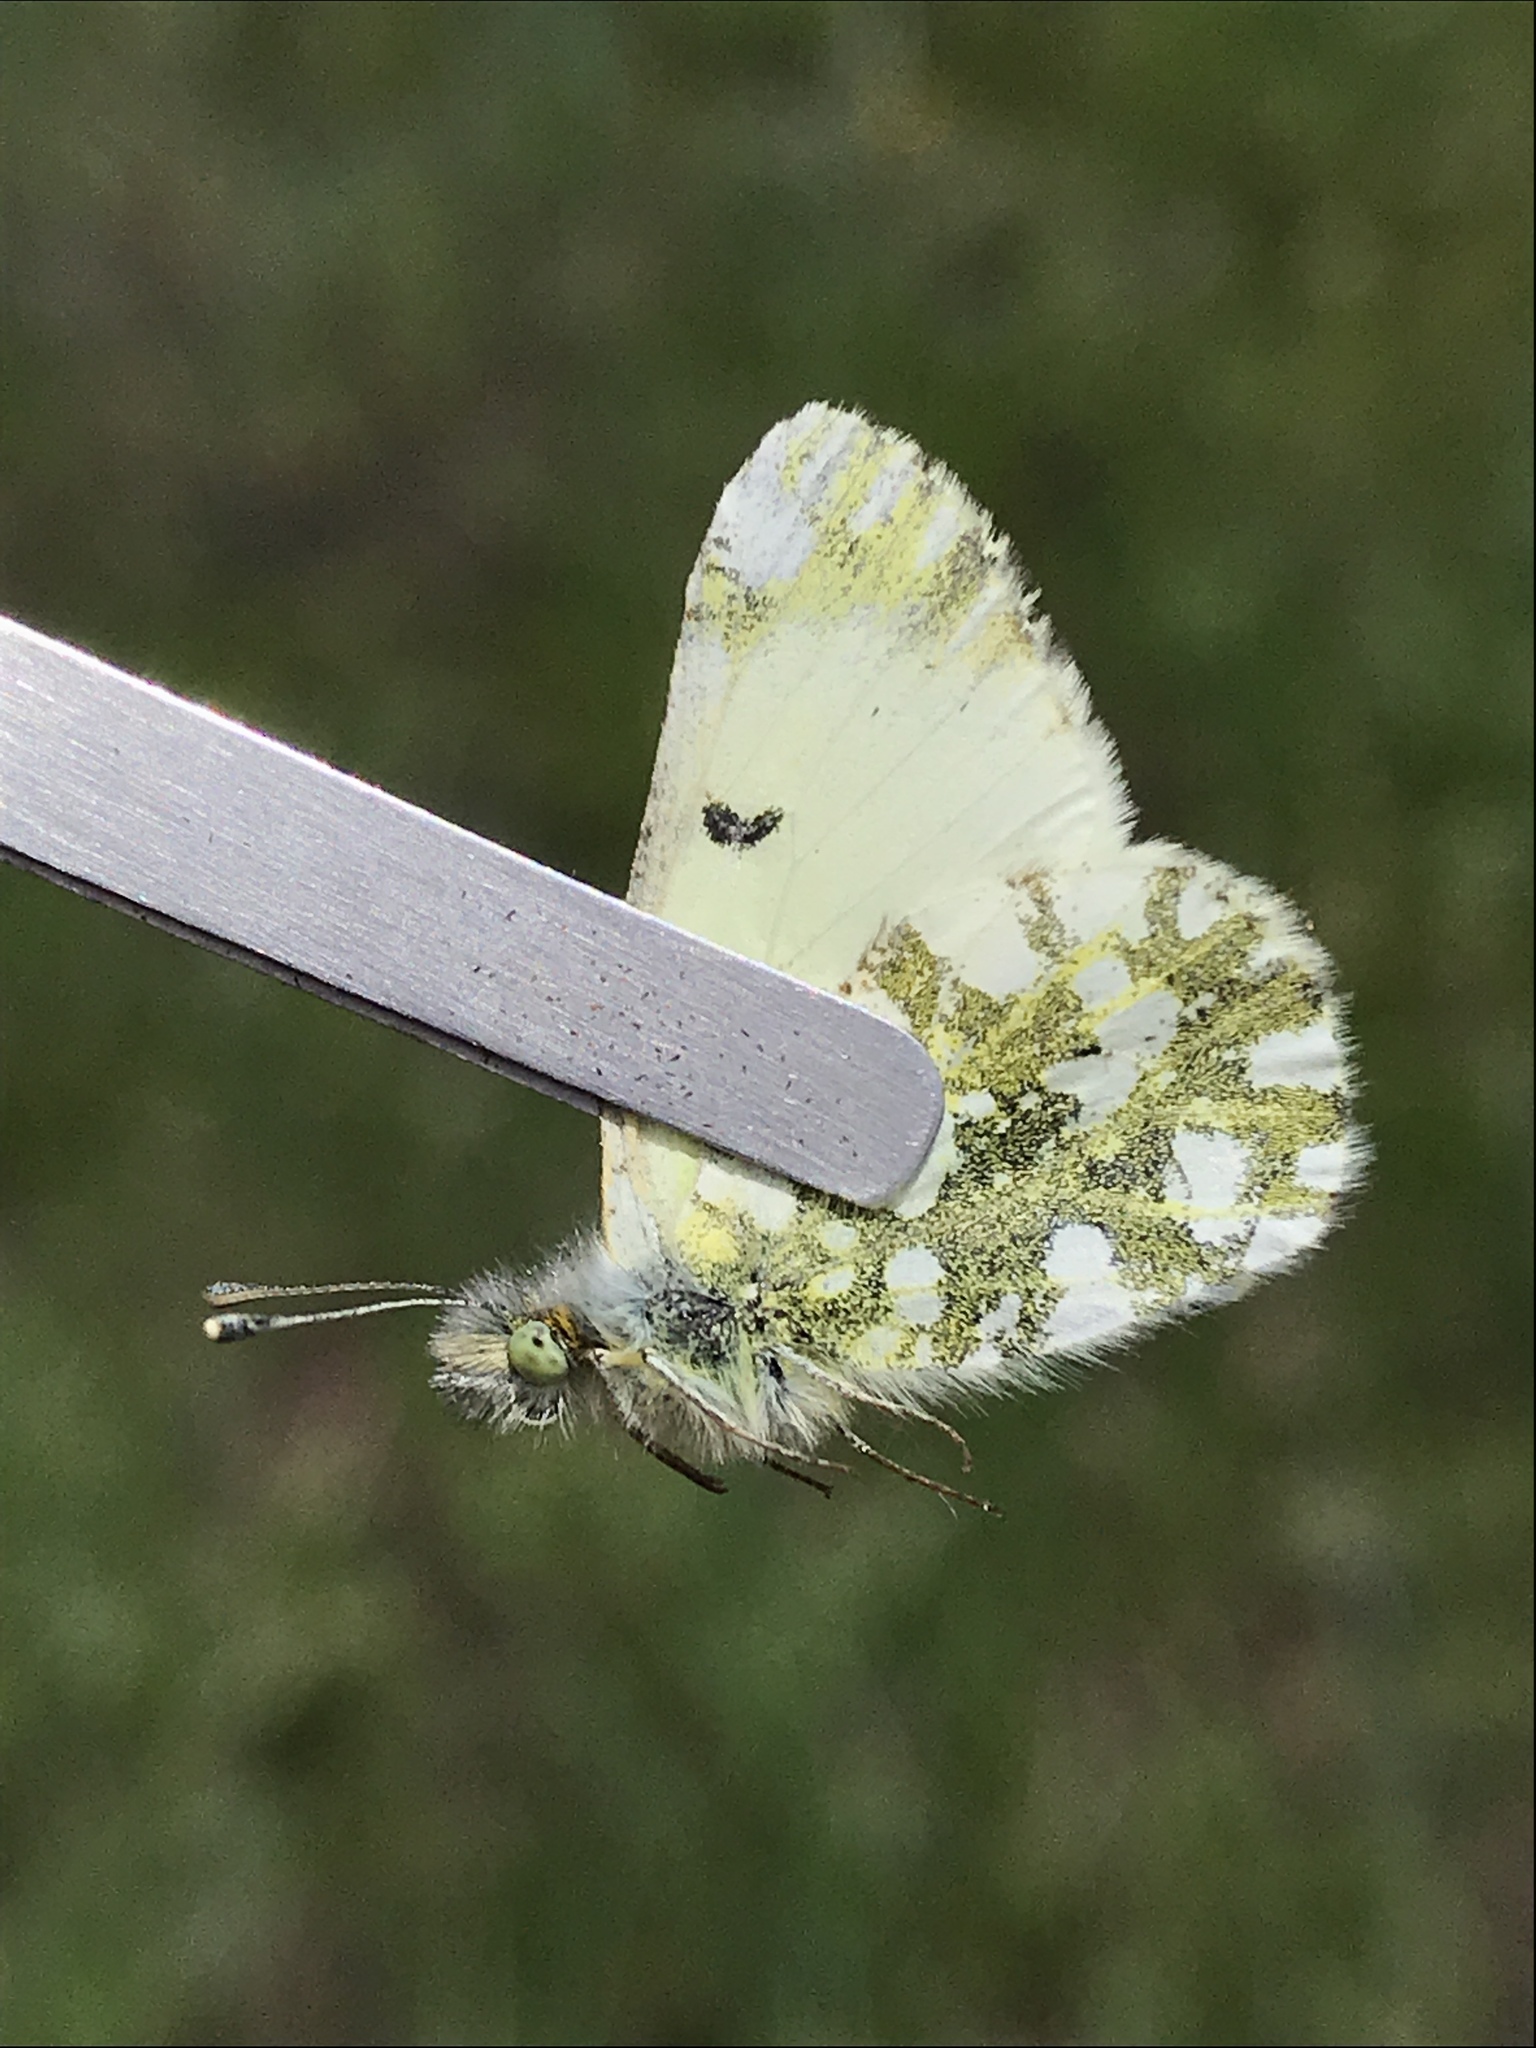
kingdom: Animalia
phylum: Arthropoda
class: Insecta
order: Lepidoptera
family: Pieridae
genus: Euchloe
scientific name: Euchloe ausonides
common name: Creamy marblewing
